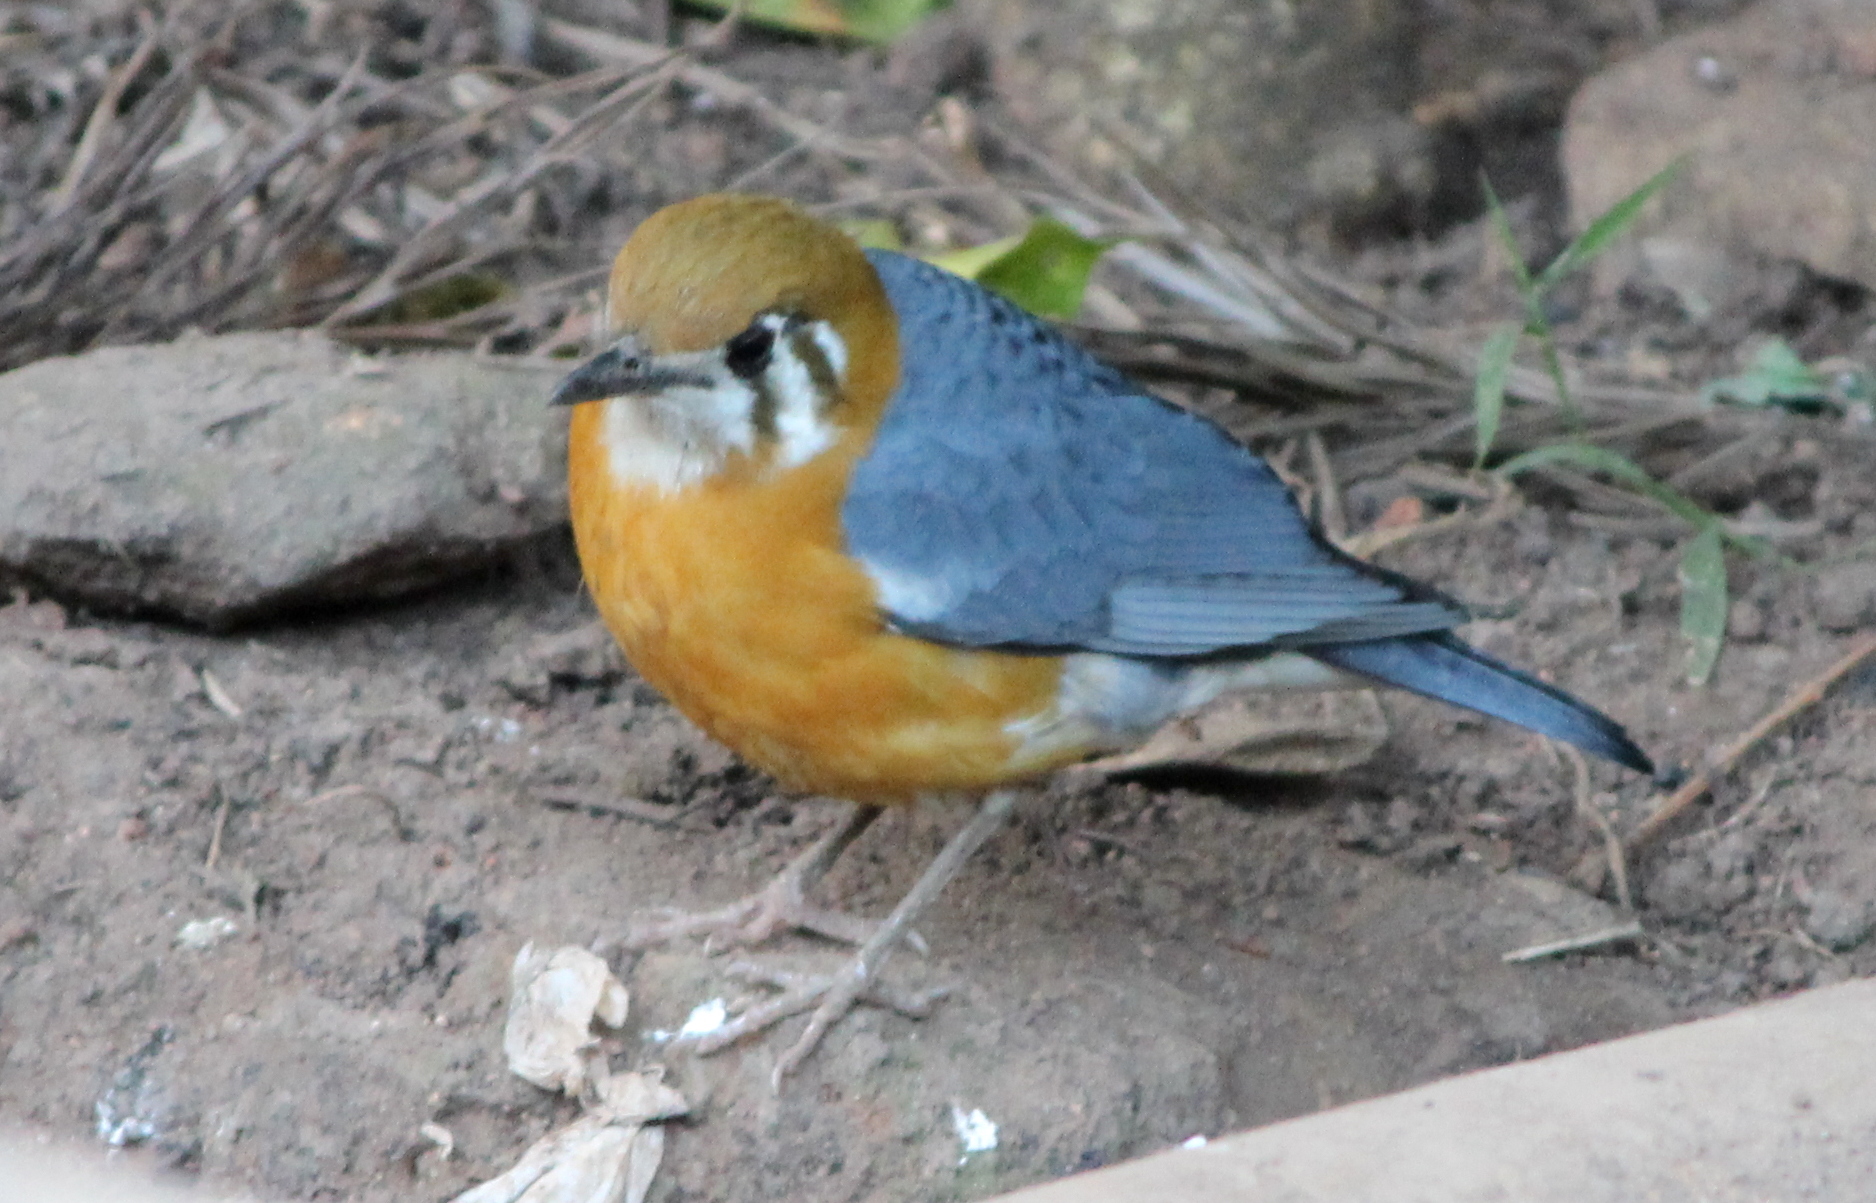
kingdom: Animalia
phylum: Chordata
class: Aves
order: Passeriformes
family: Turdidae
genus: Geokichla
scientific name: Geokichla citrina
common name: Orange-headed thrush
